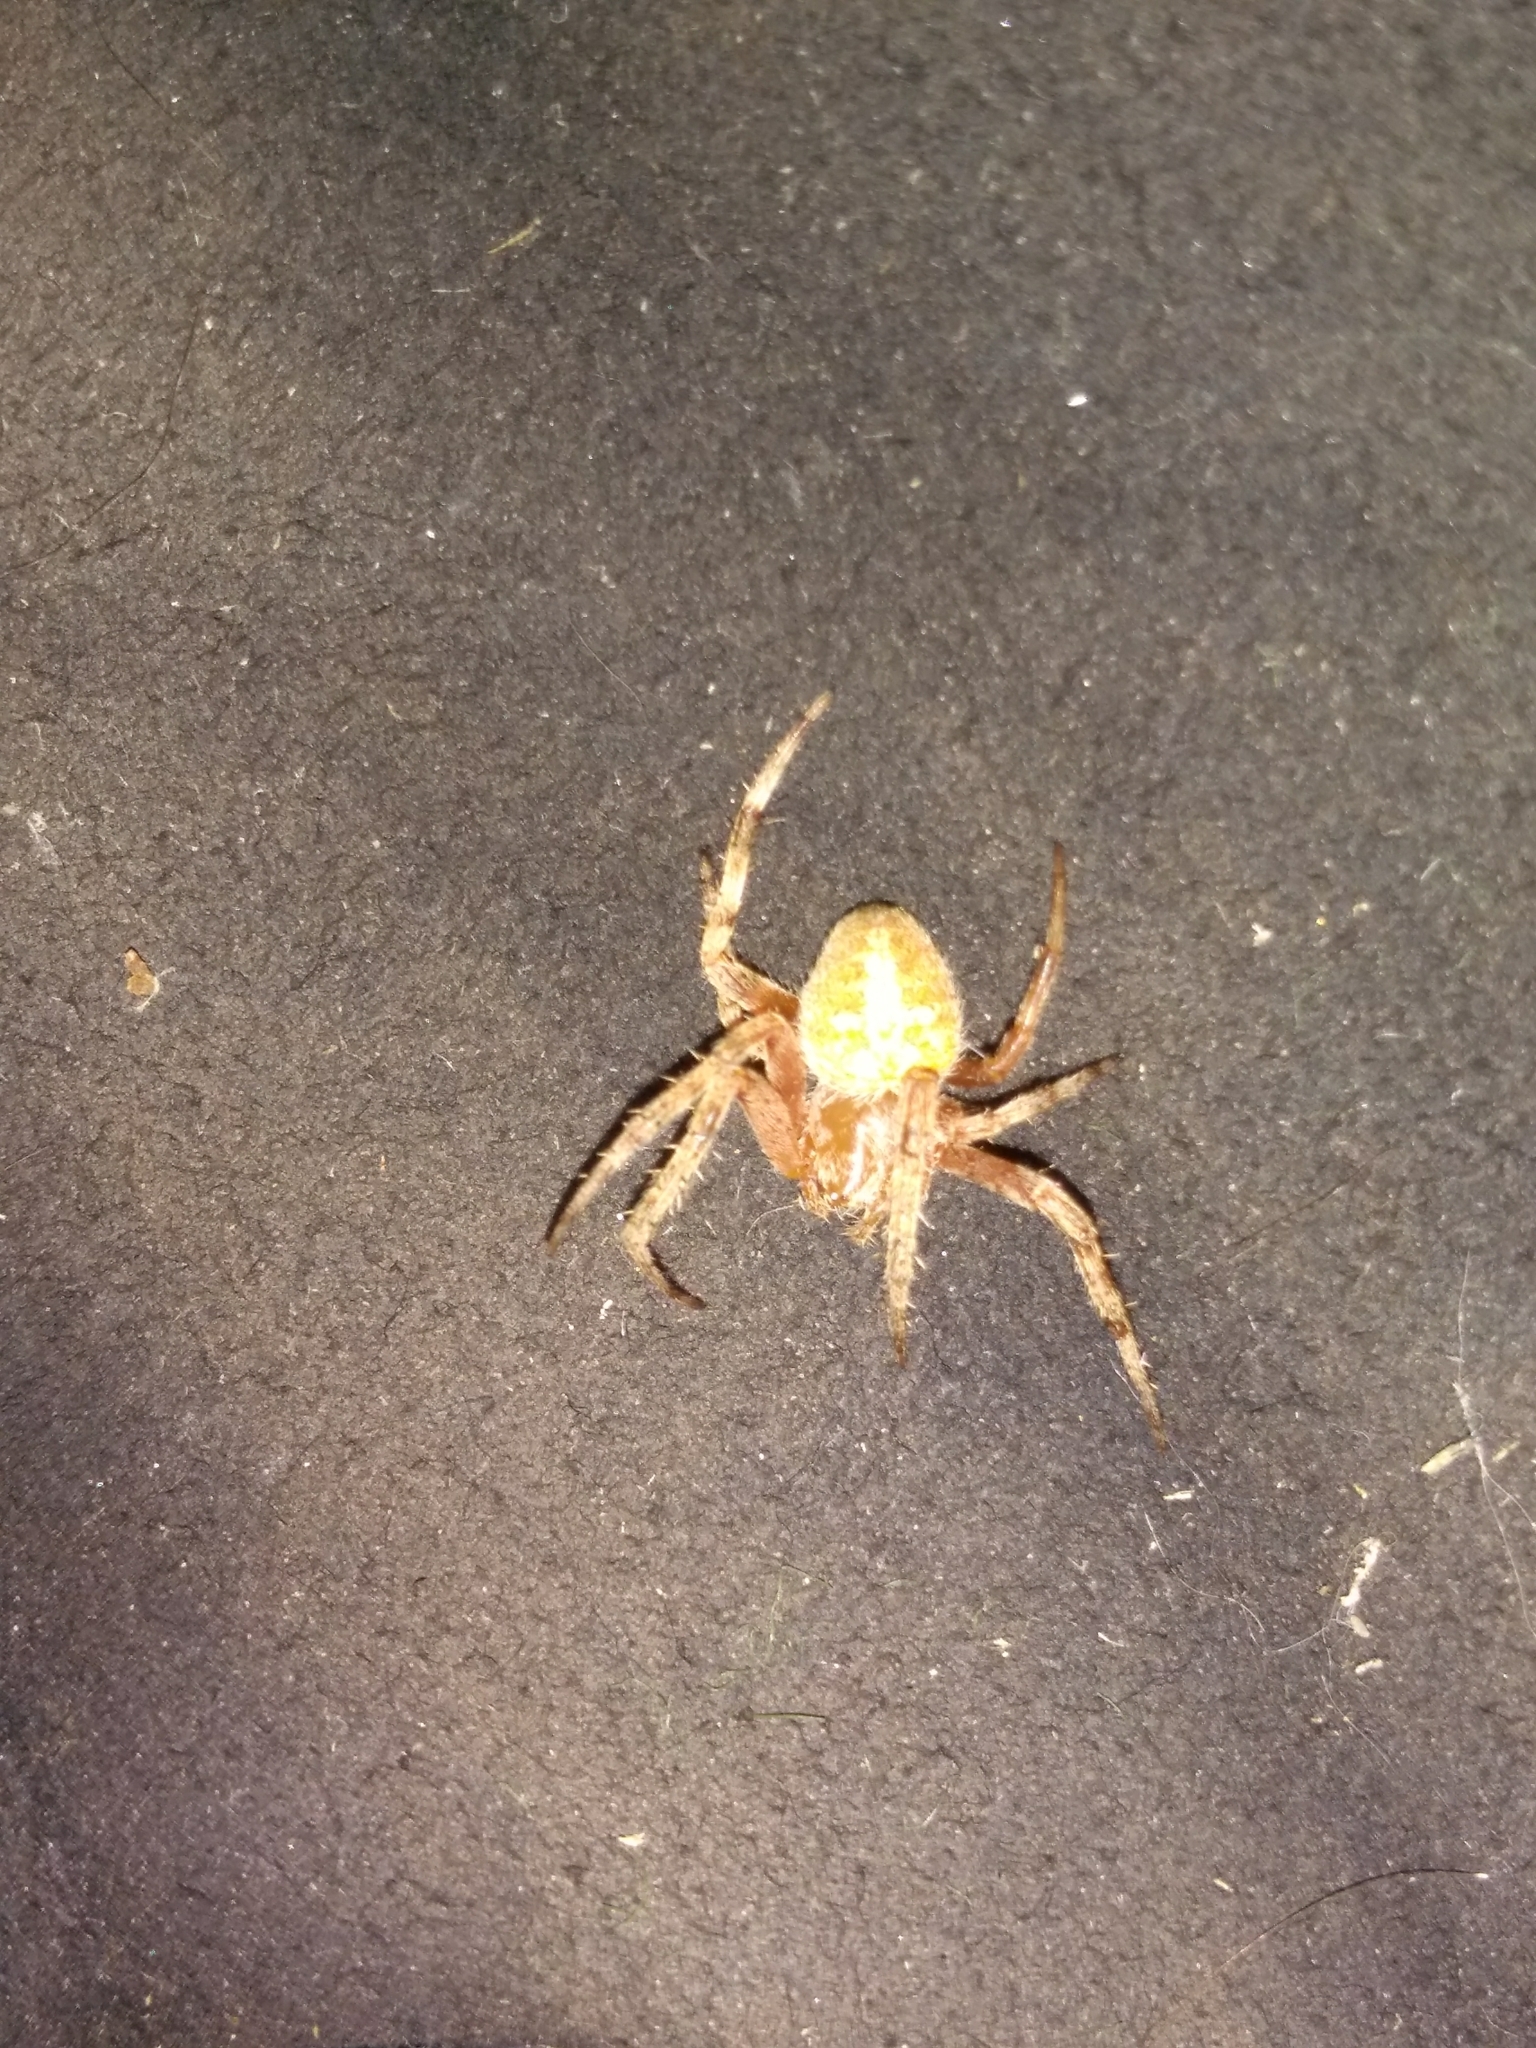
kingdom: Animalia
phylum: Arthropoda
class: Arachnida
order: Araneae
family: Araneidae
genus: Neoscona
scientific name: Neoscona crucifera
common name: Spotted orbweaver
